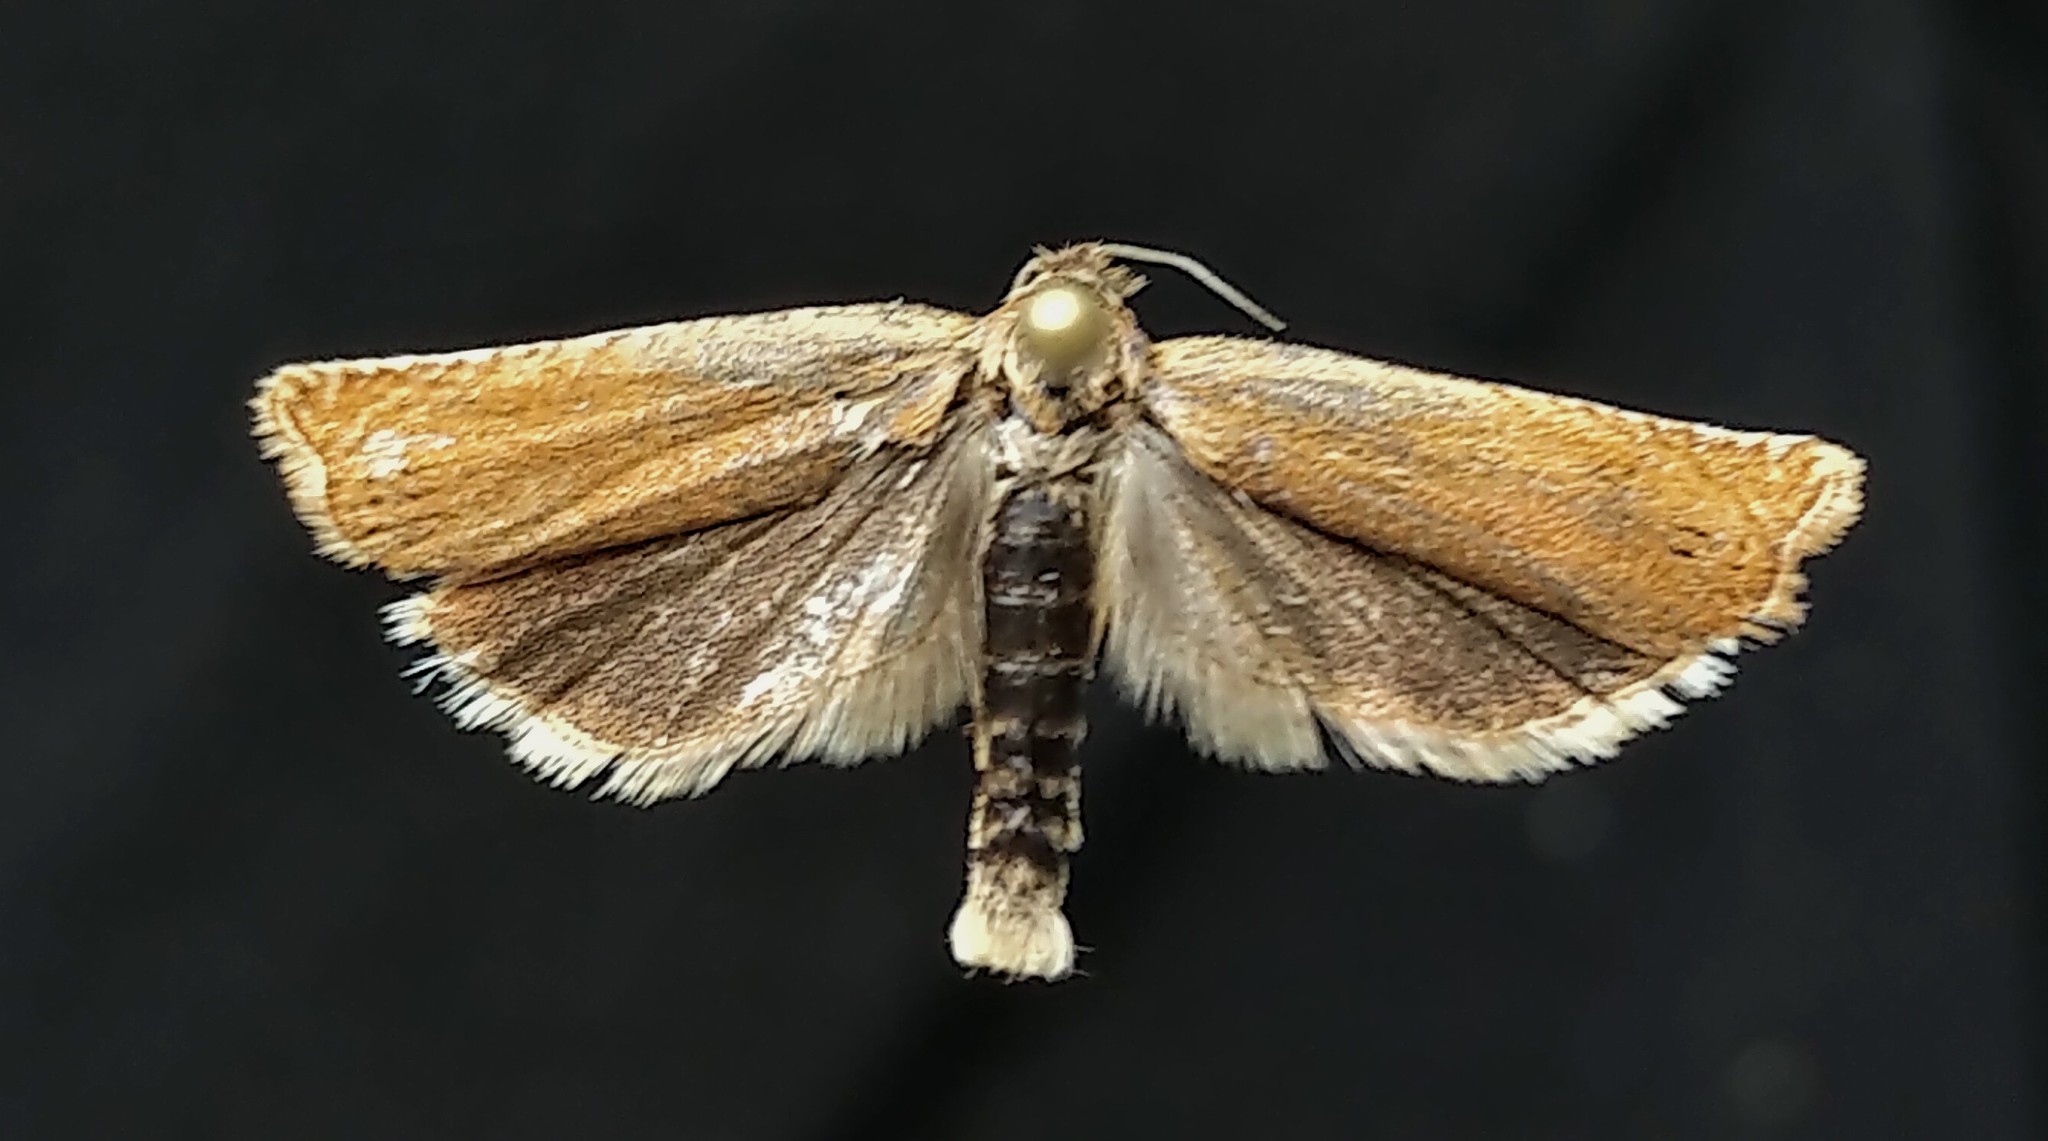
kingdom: Animalia
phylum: Arthropoda
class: Insecta
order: Lepidoptera
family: Tortricidae
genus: Hystrichophora
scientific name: Hystrichophora stygiana
